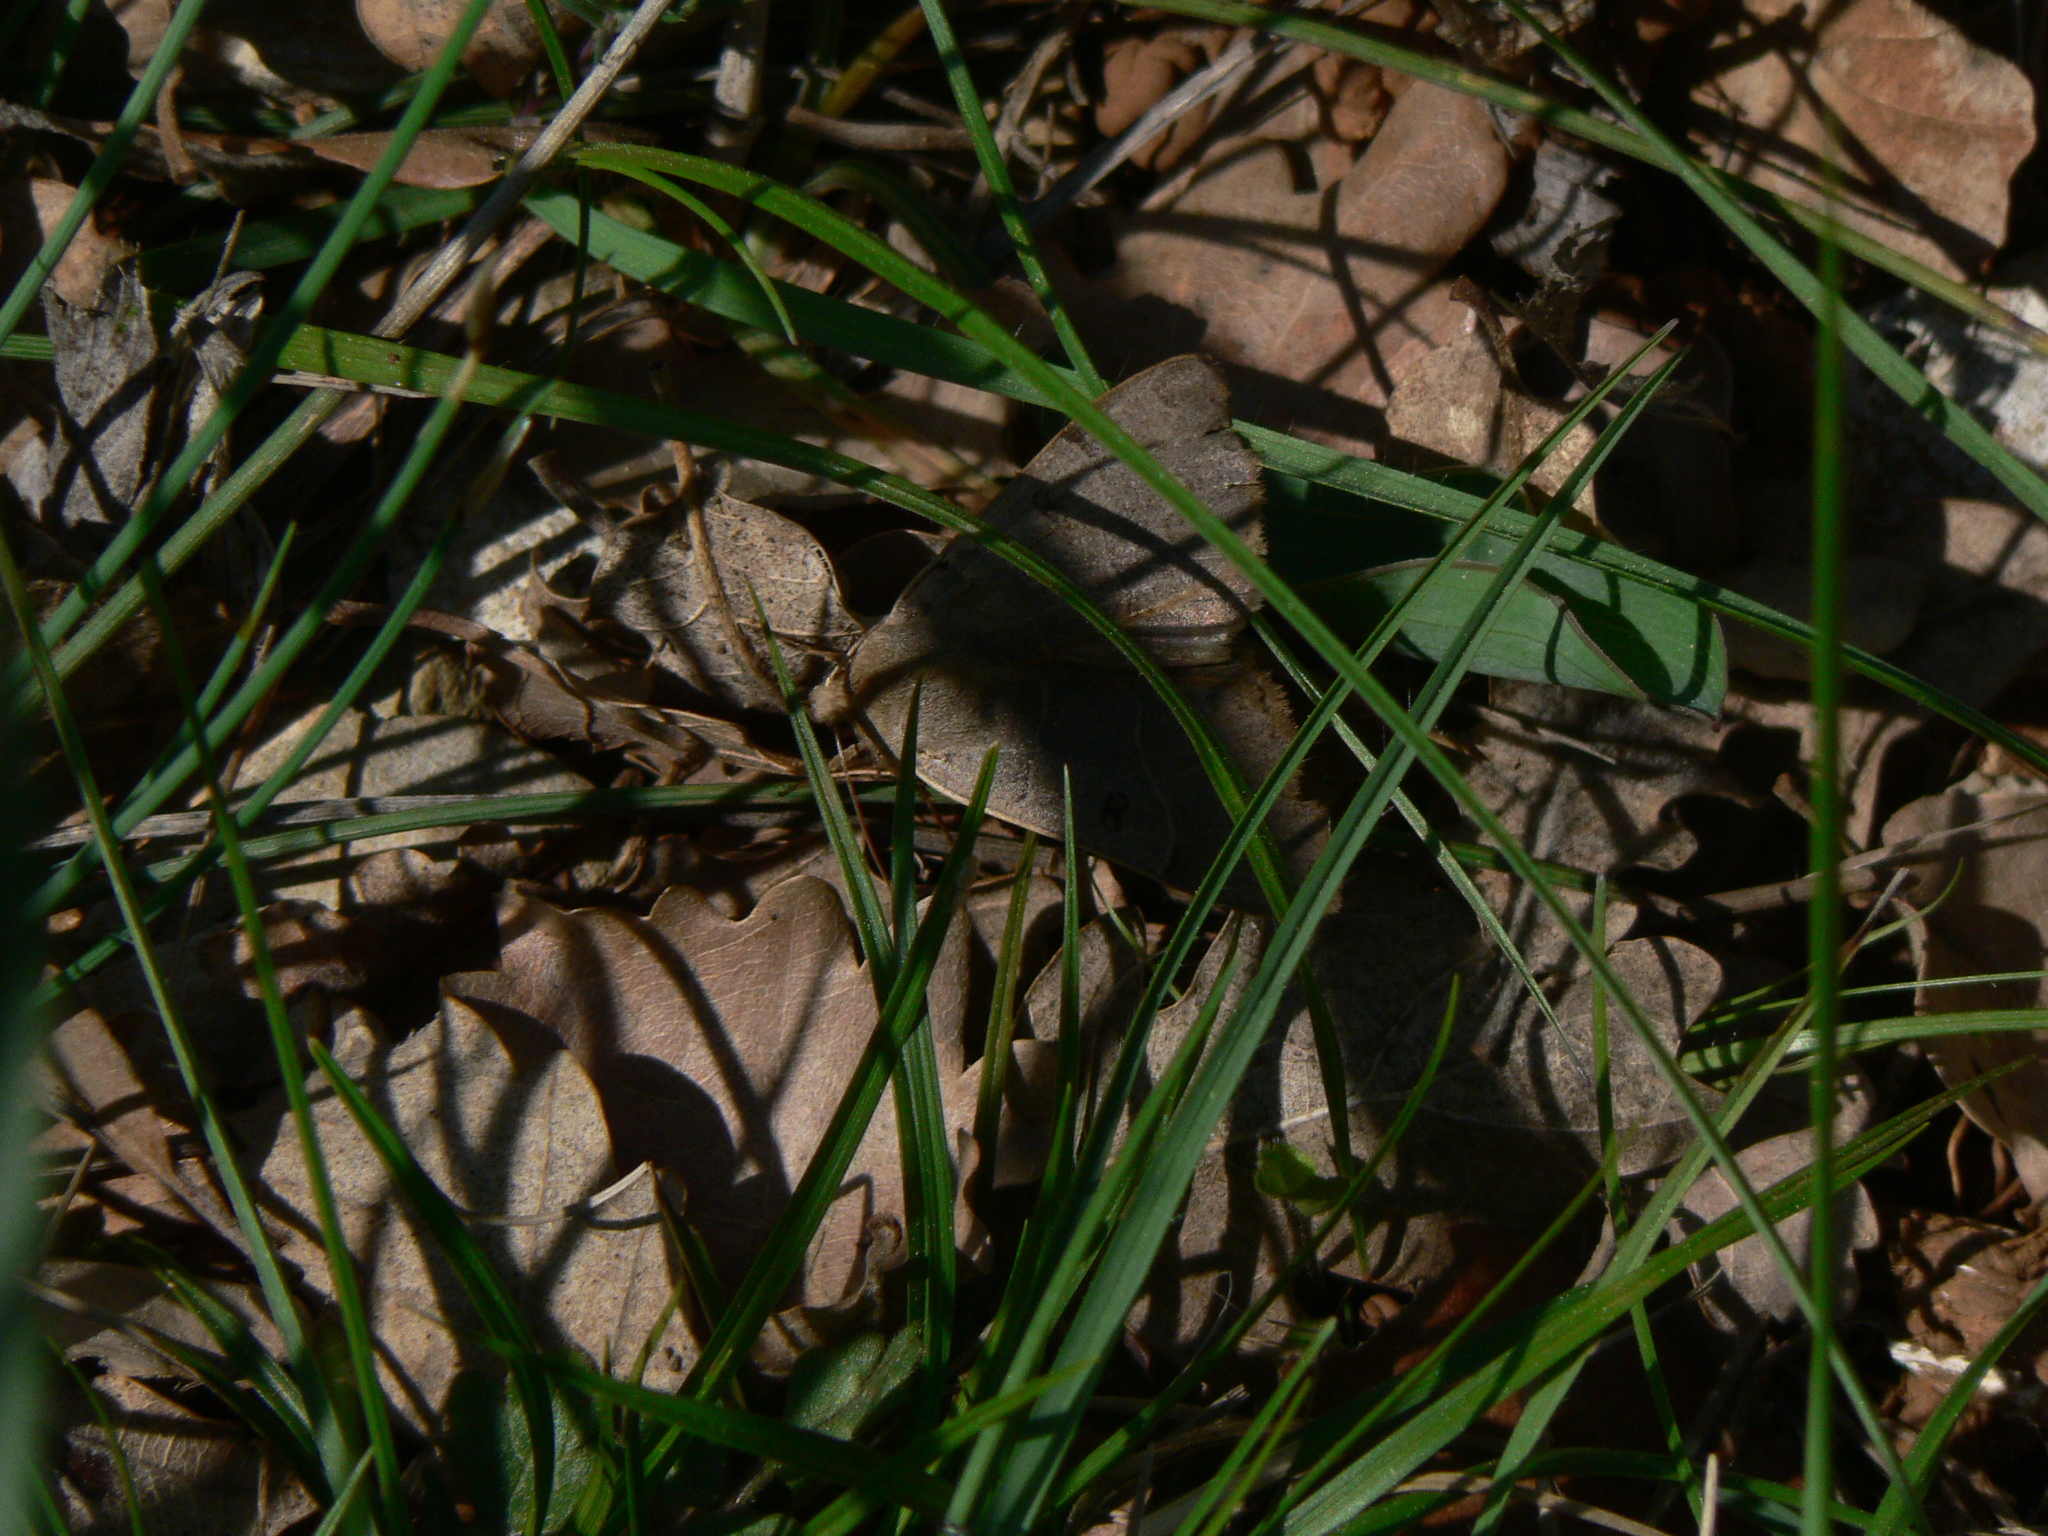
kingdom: Animalia
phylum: Arthropoda
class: Insecta
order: Lepidoptera
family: Erebidae
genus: Minucia
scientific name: Minucia lunaris
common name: Lunar double-stripe
